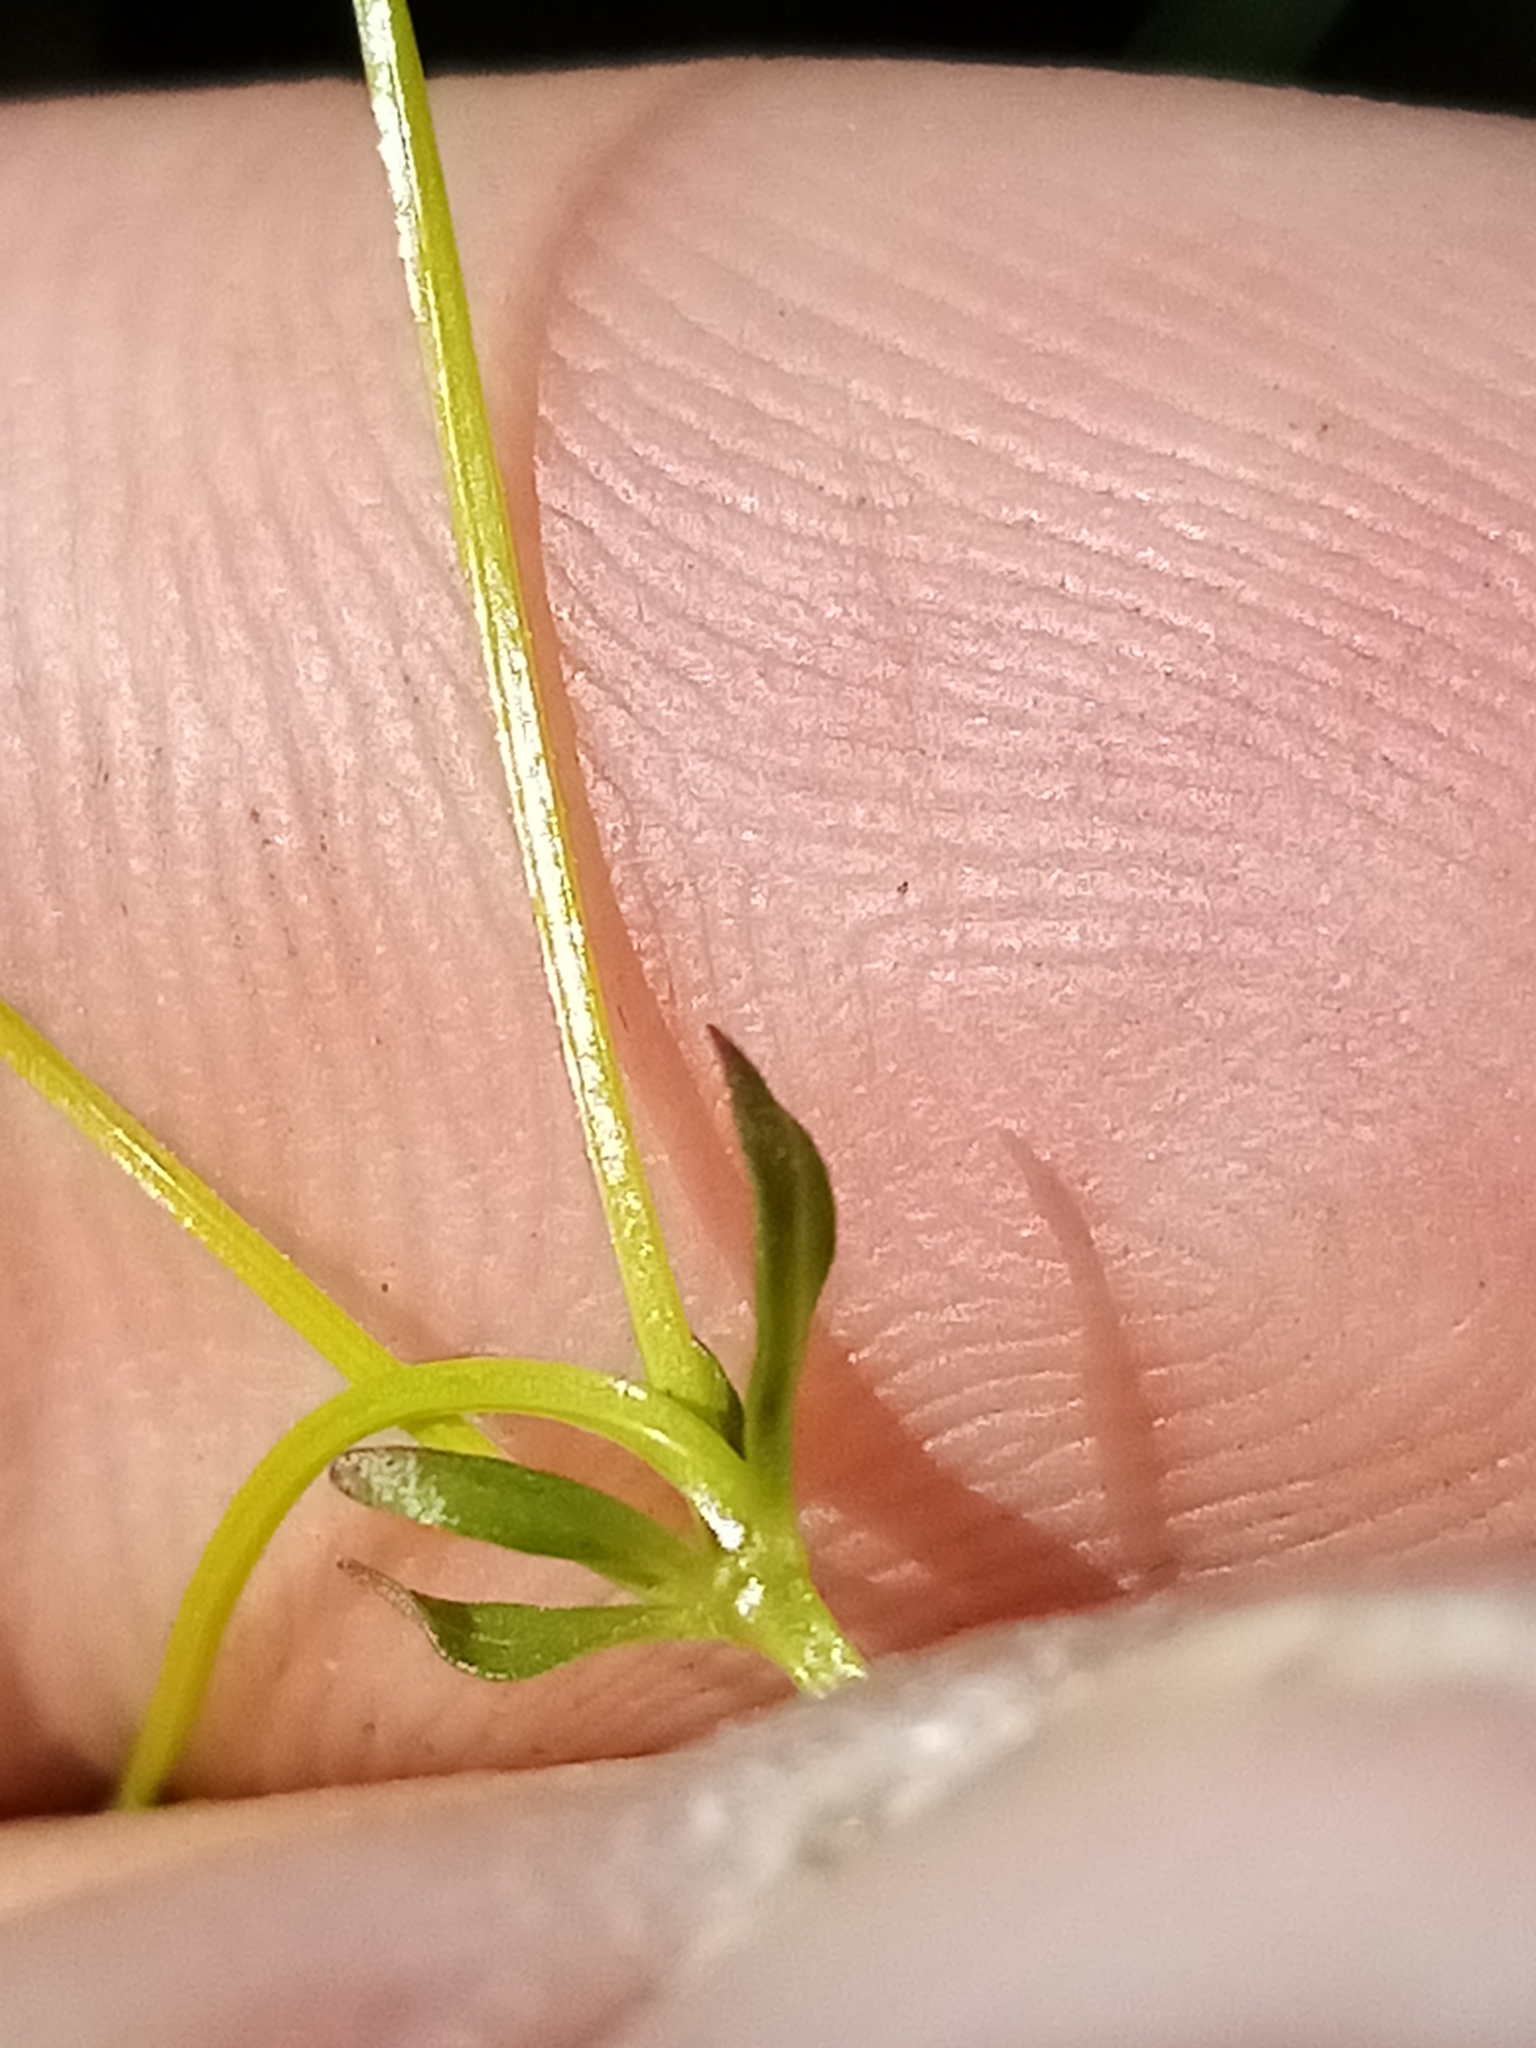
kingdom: Plantae
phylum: Tracheophyta
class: Magnoliopsida
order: Gentianales
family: Rubiaceae
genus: Galium
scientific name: Galium palustre
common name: Common marsh-bedstraw
